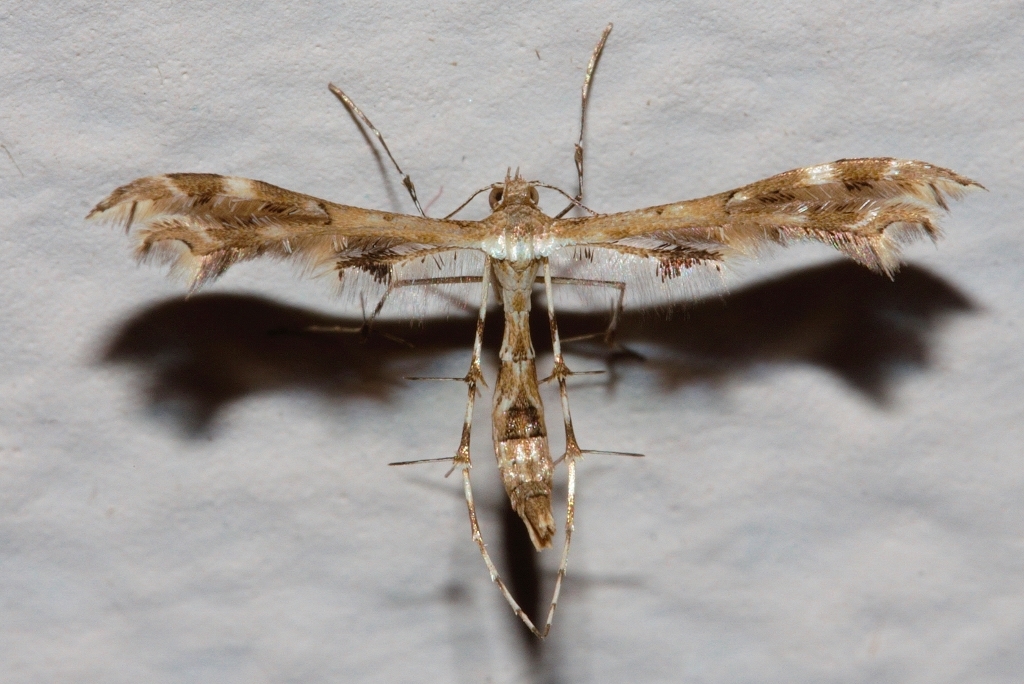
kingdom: Animalia
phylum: Arthropoda
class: Insecta
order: Lepidoptera
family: Pterophoridae
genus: Sphenarches
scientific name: Sphenarches anisodactylus
